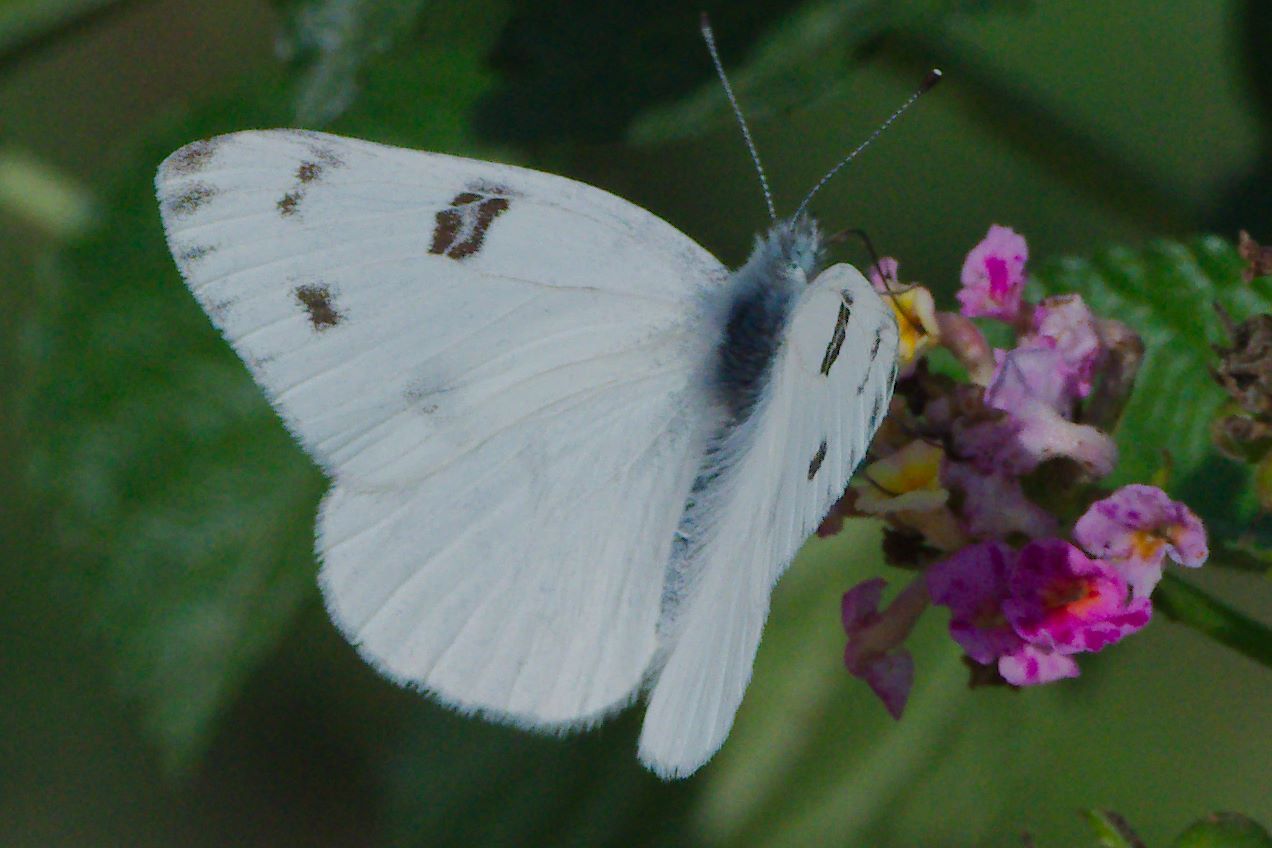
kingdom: Animalia
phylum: Arthropoda
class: Insecta
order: Lepidoptera
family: Pieridae
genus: Pontia
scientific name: Pontia protodice
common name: Checkered white
